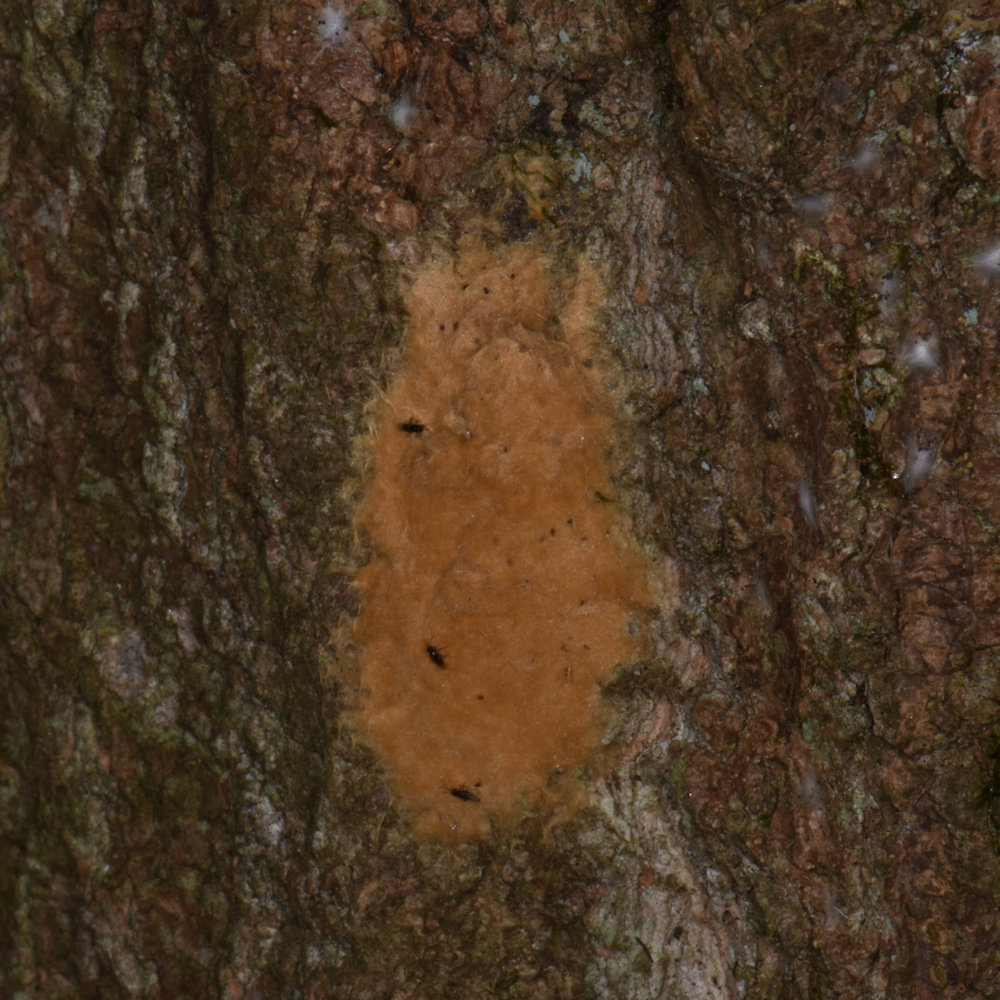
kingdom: Animalia
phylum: Arthropoda
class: Insecta
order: Lepidoptera
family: Erebidae
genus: Lymantria
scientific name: Lymantria dispar
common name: Gypsy moth
